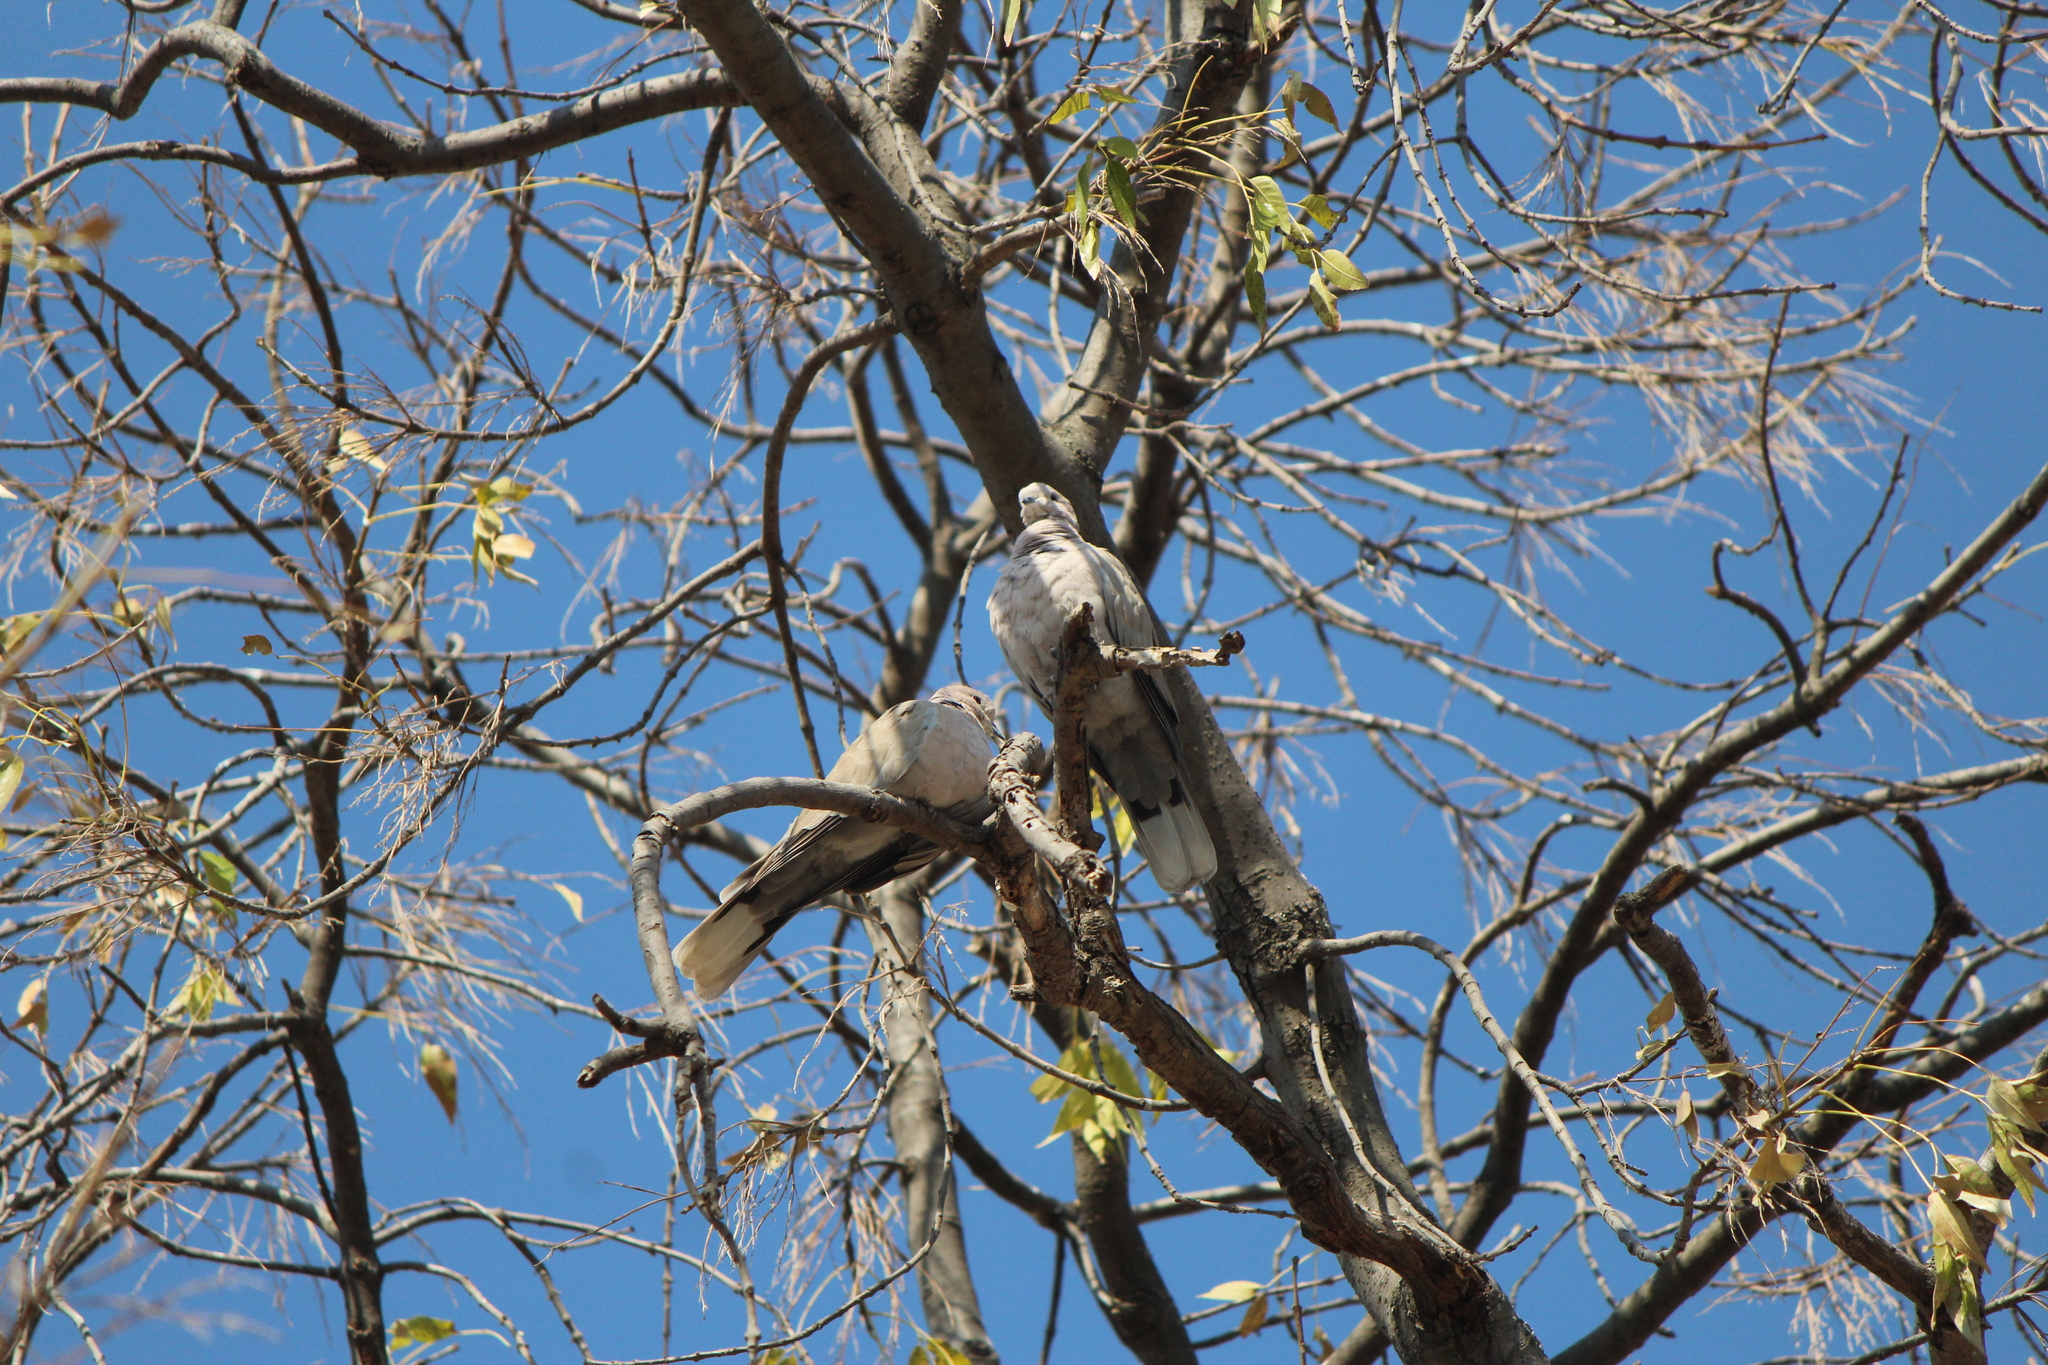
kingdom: Animalia
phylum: Chordata
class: Aves
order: Columbiformes
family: Columbidae
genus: Streptopelia
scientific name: Streptopelia decaocto
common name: Eurasian collared dove
